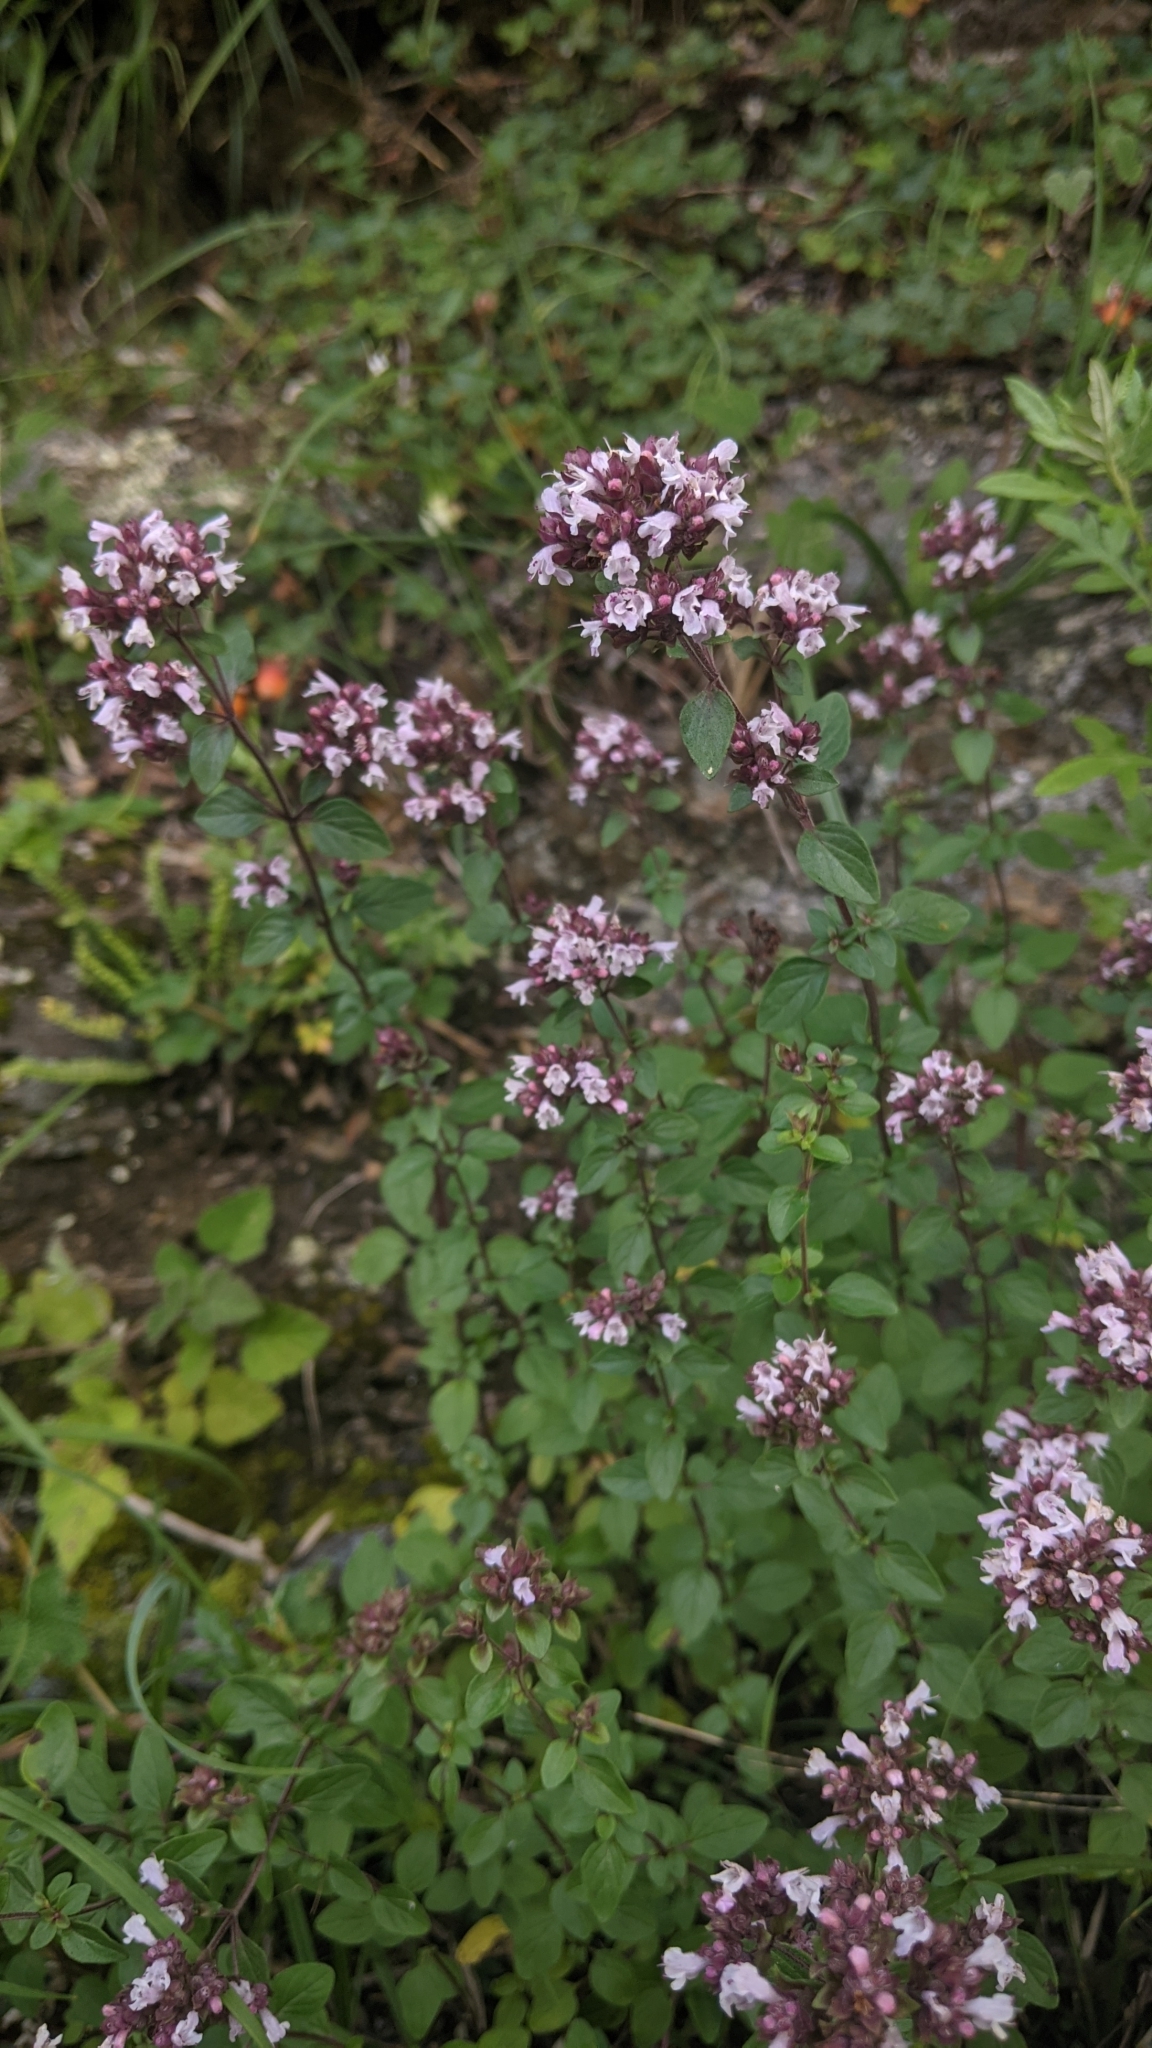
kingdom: Plantae
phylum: Tracheophyta
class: Magnoliopsida
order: Lamiales
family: Lamiaceae
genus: Origanum
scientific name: Origanum vulgare
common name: Wild marjoram
